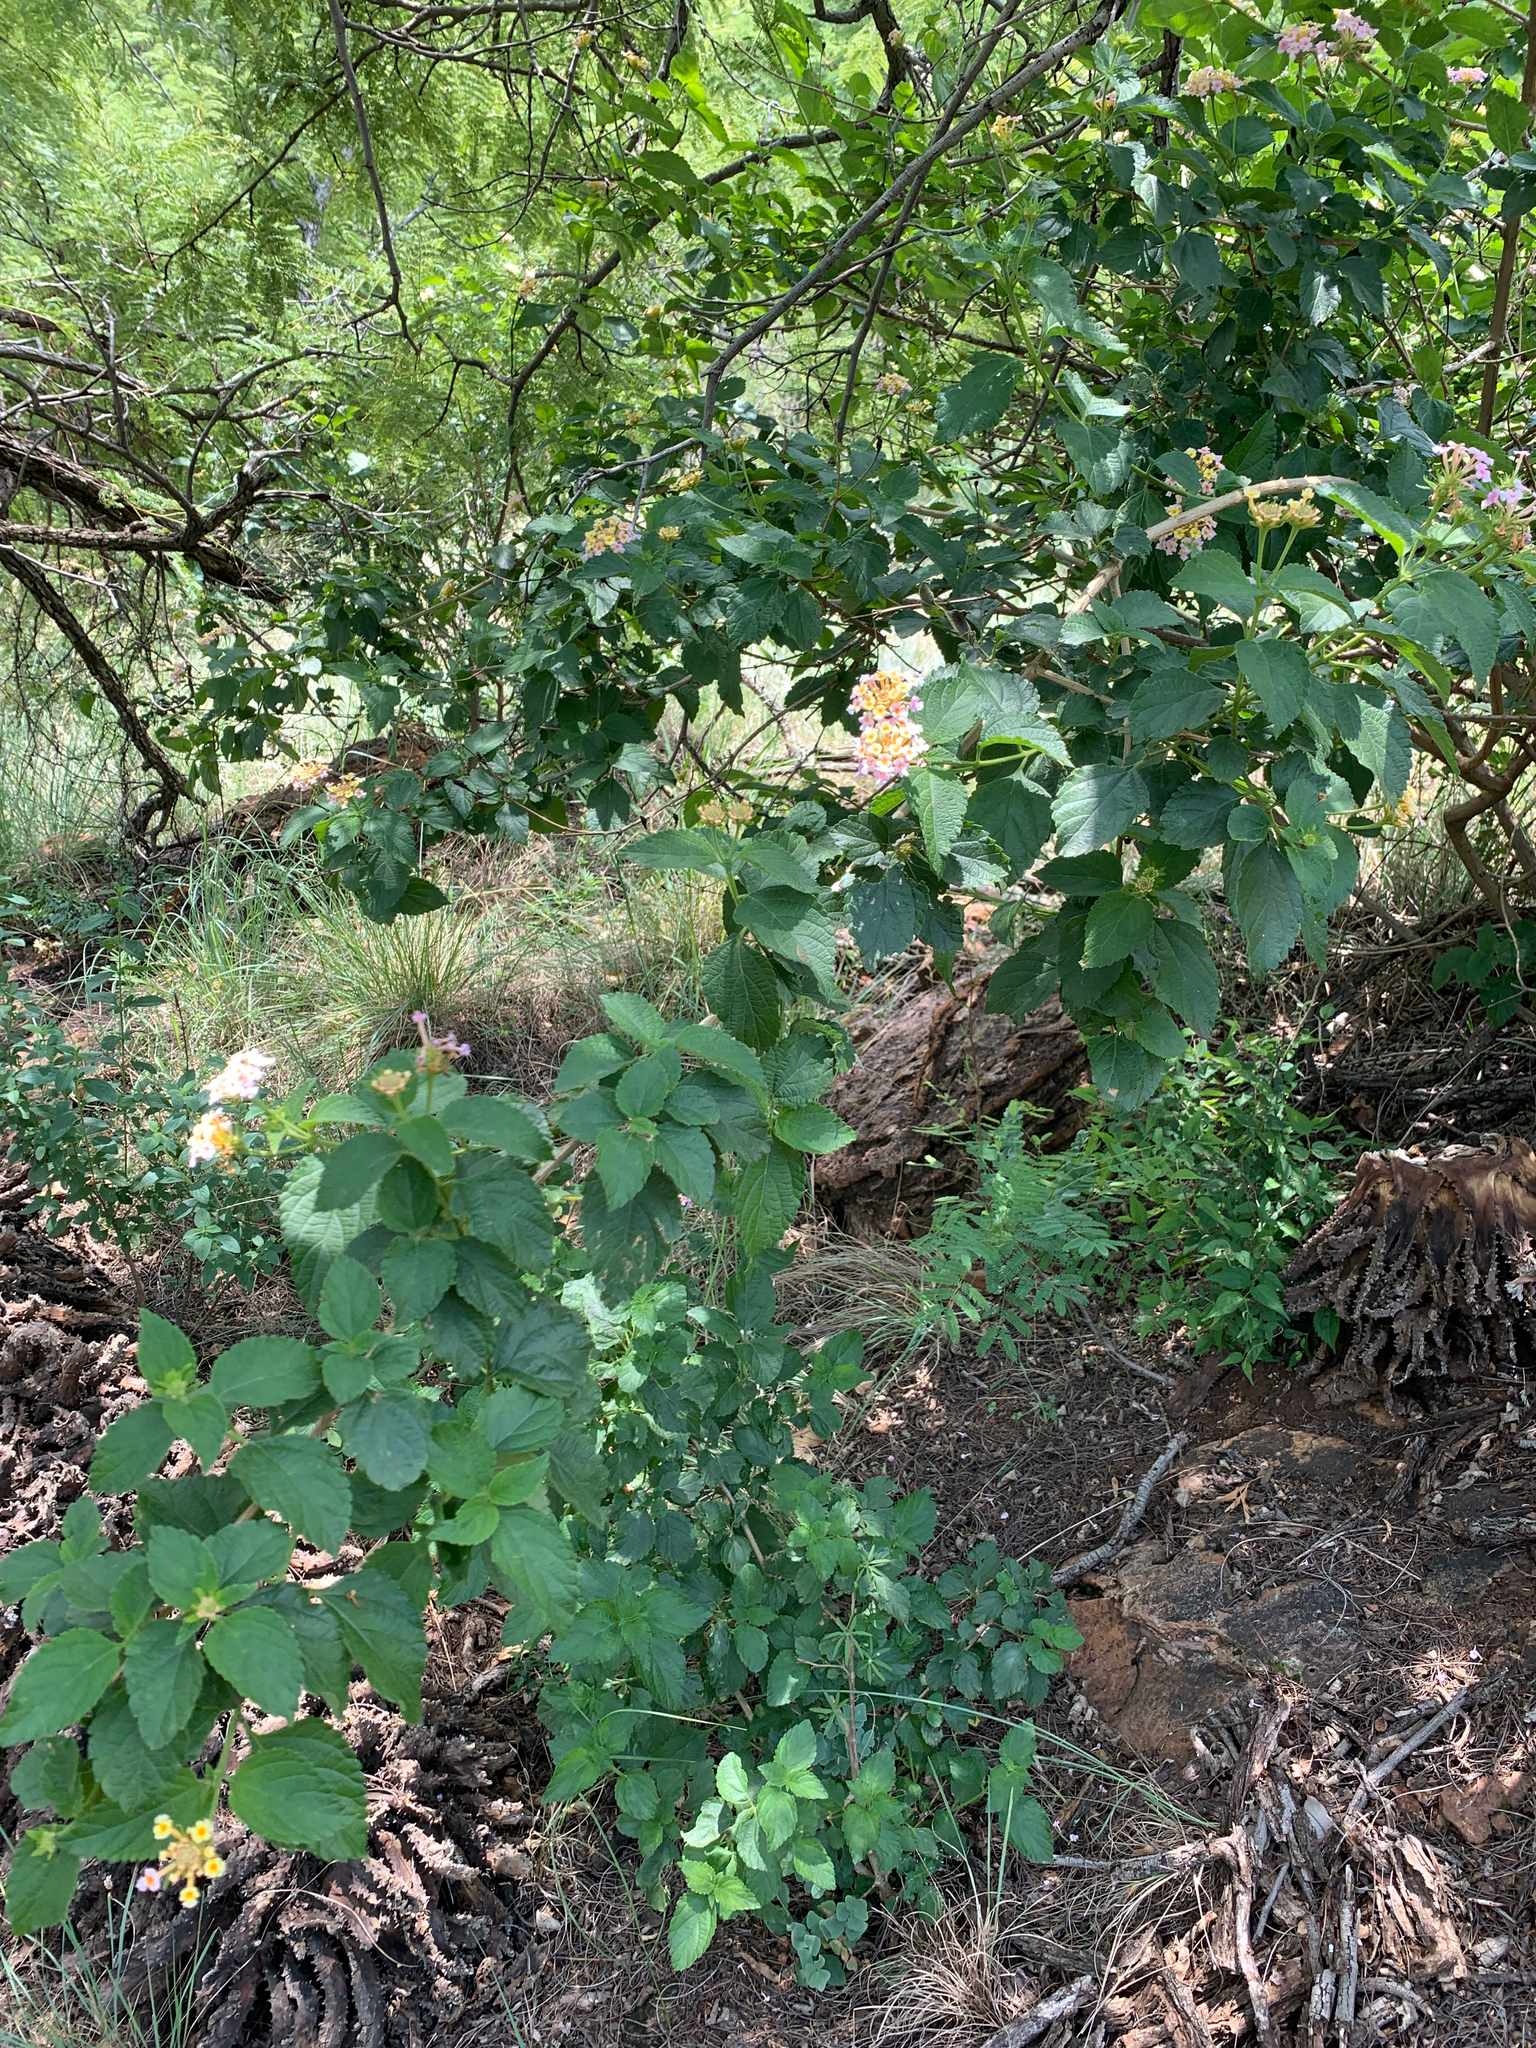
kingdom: Plantae
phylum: Tracheophyta
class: Magnoliopsida
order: Lamiales
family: Verbenaceae
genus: Lantana
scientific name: Lantana camara
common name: Lantana
